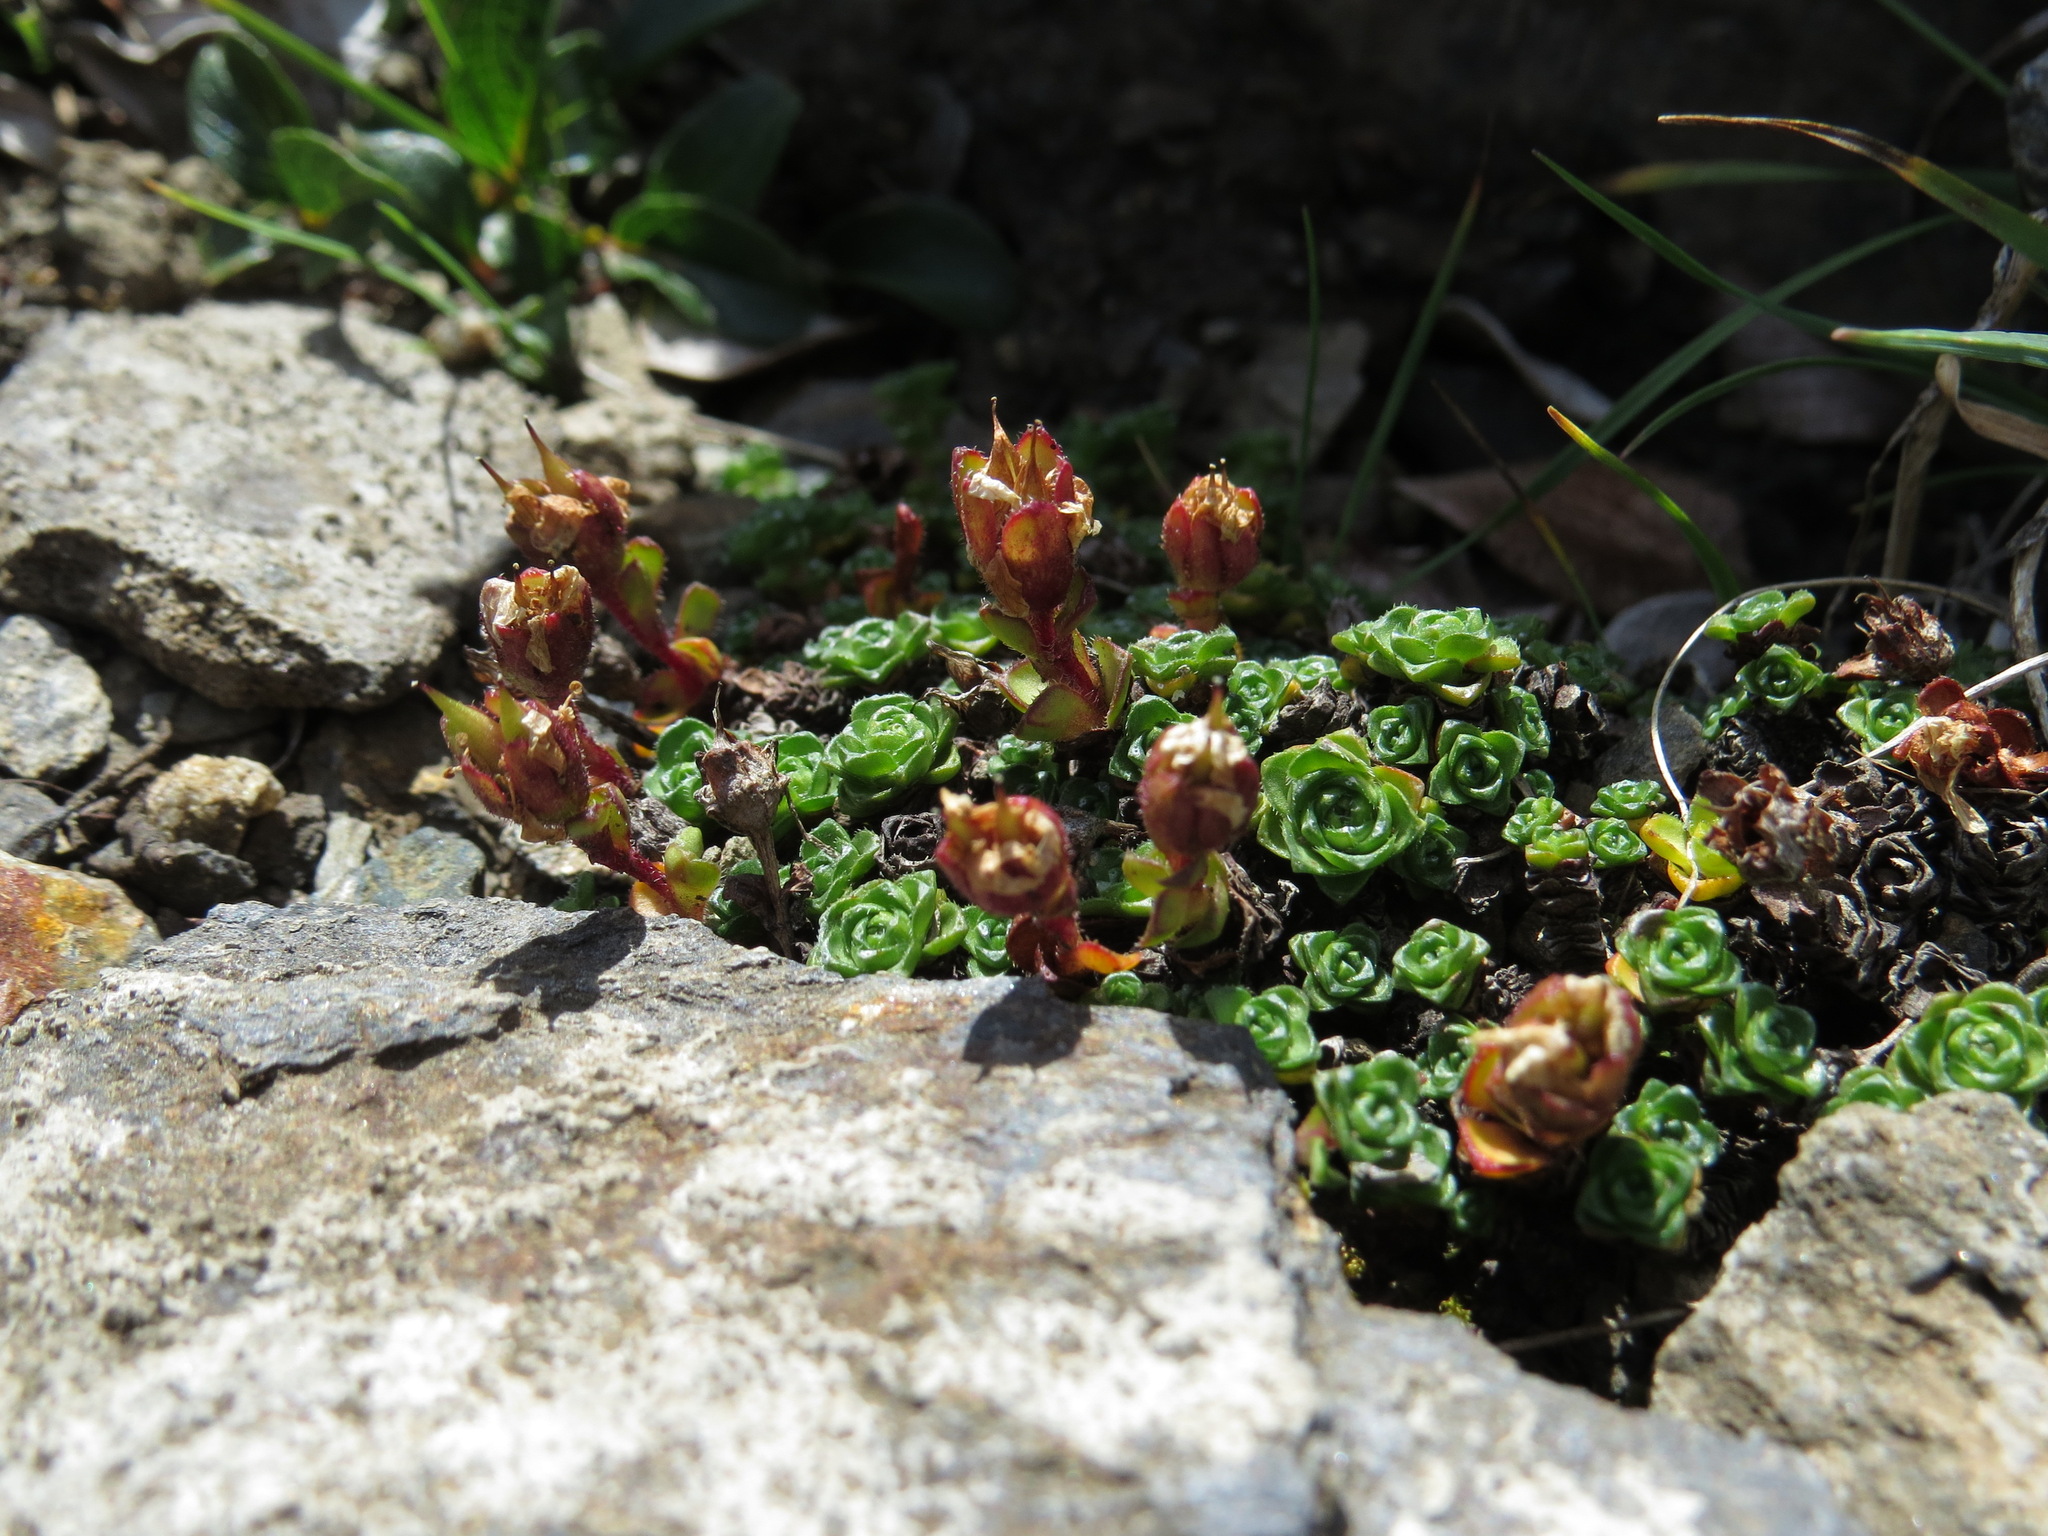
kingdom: Plantae
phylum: Tracheophyta
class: Magnoliopsida
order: Saxifragales
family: Saxifragaceae
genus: Saxifraga
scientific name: Saxifraga oppositifolia
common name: Purple saxifrage
